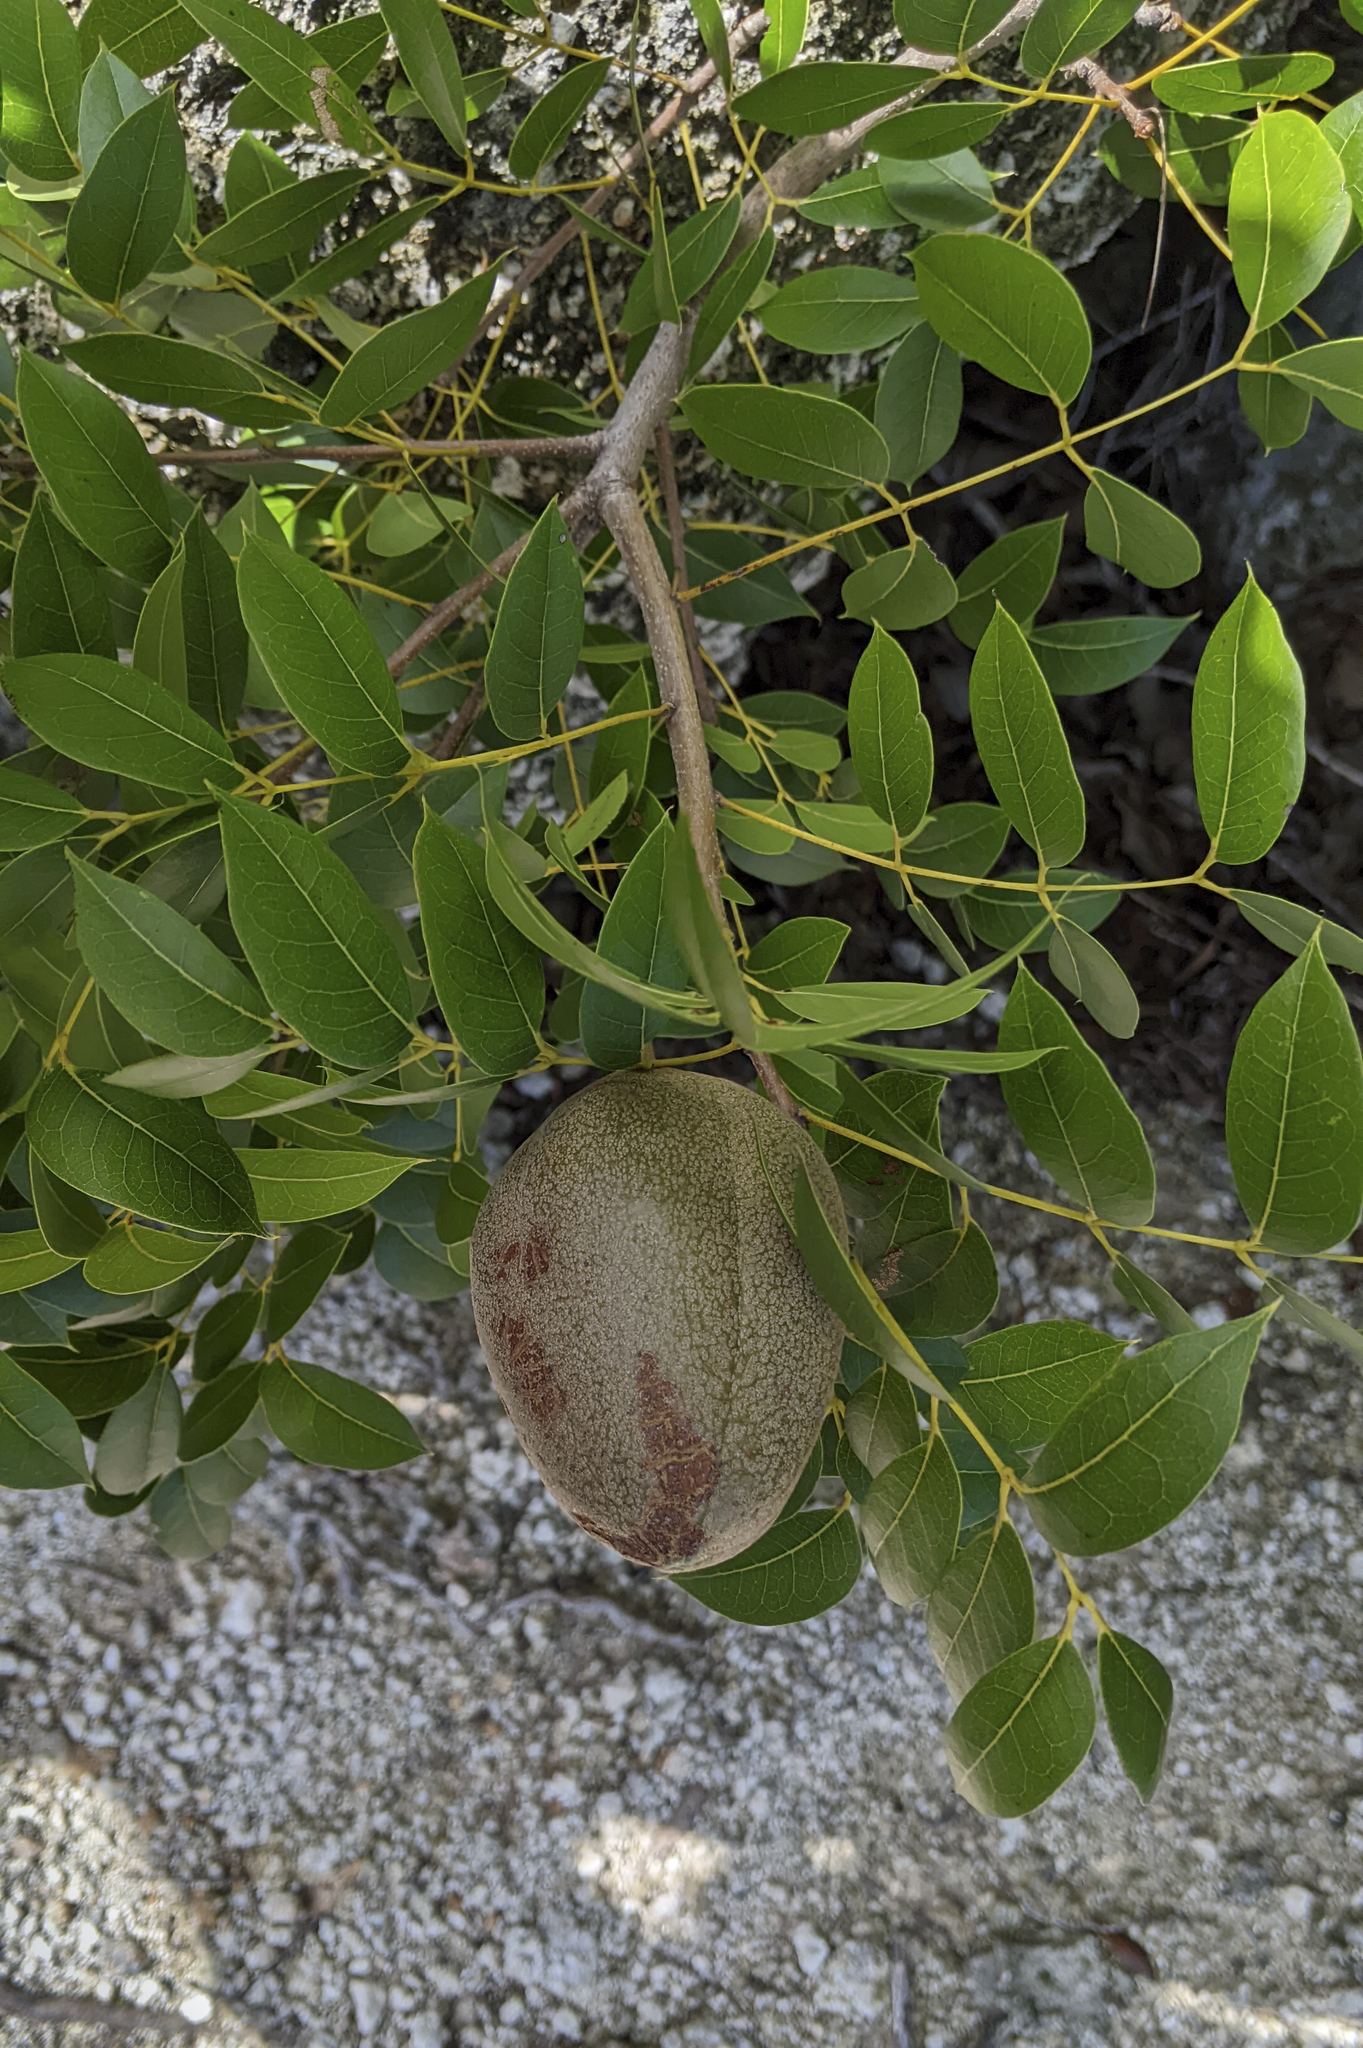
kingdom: Plantae
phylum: Tracheophyta
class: Magnoliopsida
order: Sapindales
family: Meliaceae
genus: Swietenia
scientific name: Swietenia mahagoni
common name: West indian mahogany
